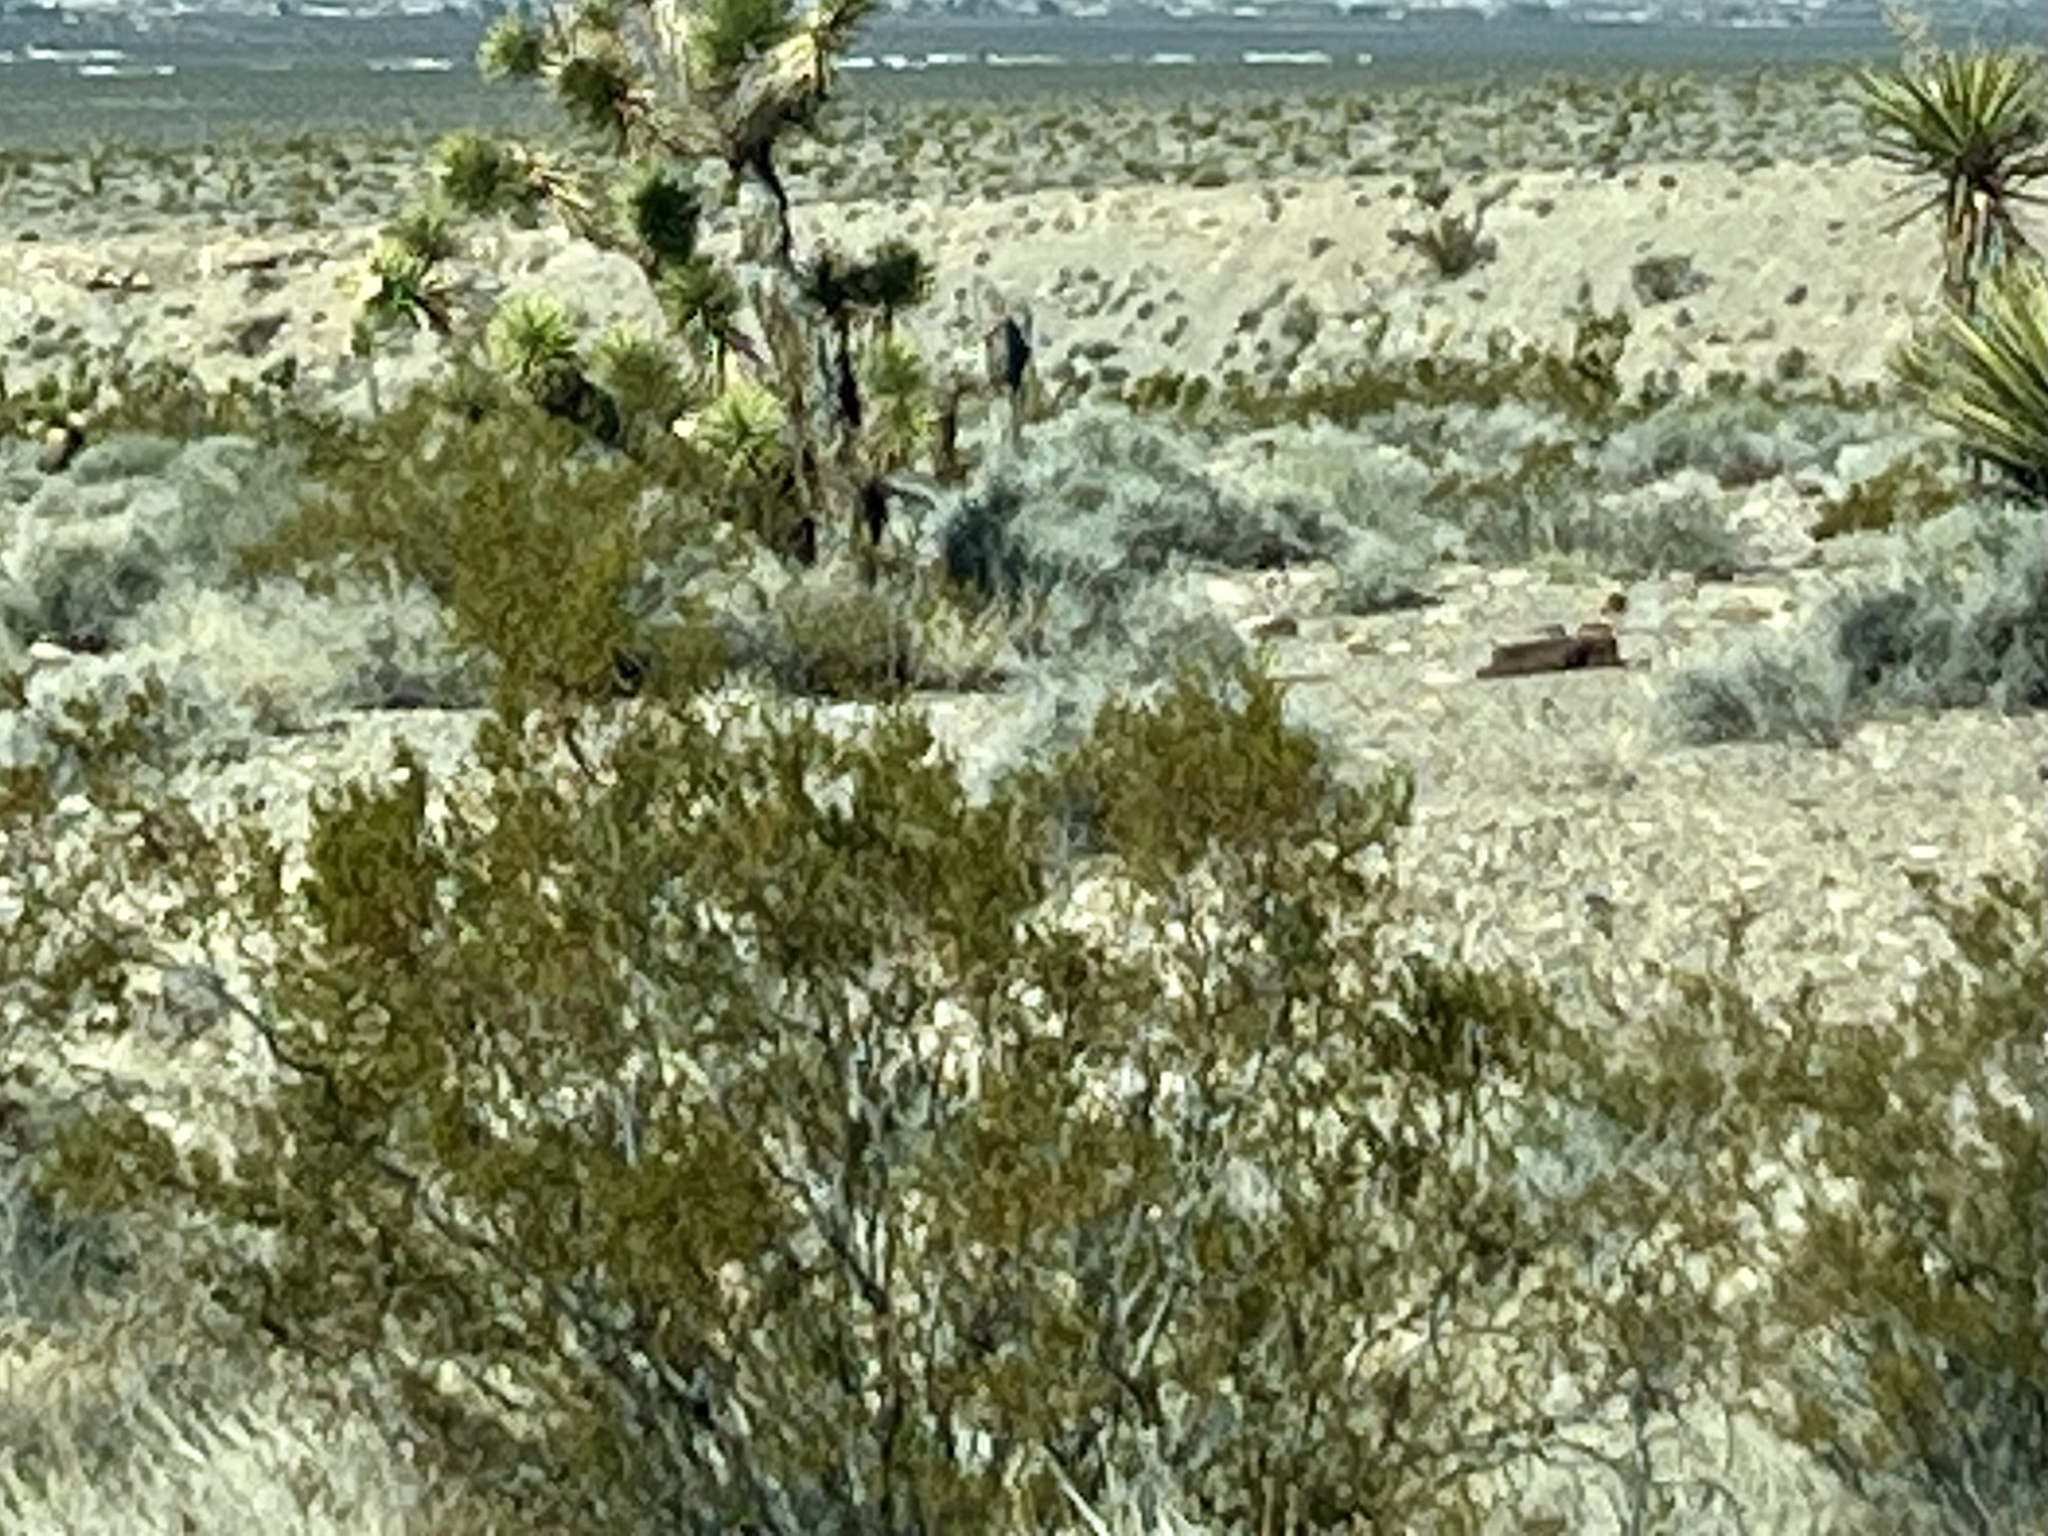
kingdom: Plantae
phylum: Tracheophyta
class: Magnoliopsida
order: Zygophyllales
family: Zygophyllaceae
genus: Larrea
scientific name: Larrea tridentata
